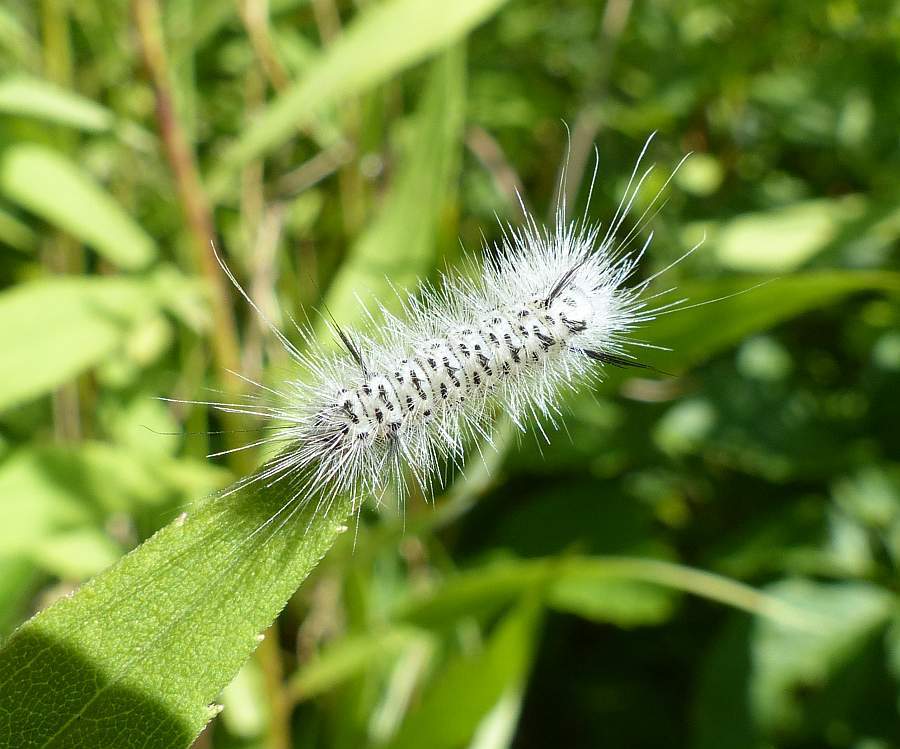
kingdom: Animalia
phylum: Arthropoda
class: Insecta
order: Lepidoptera
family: Erebidae
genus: Lophocampa
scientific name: Lophocampa caryae
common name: Hickory tussock moth
